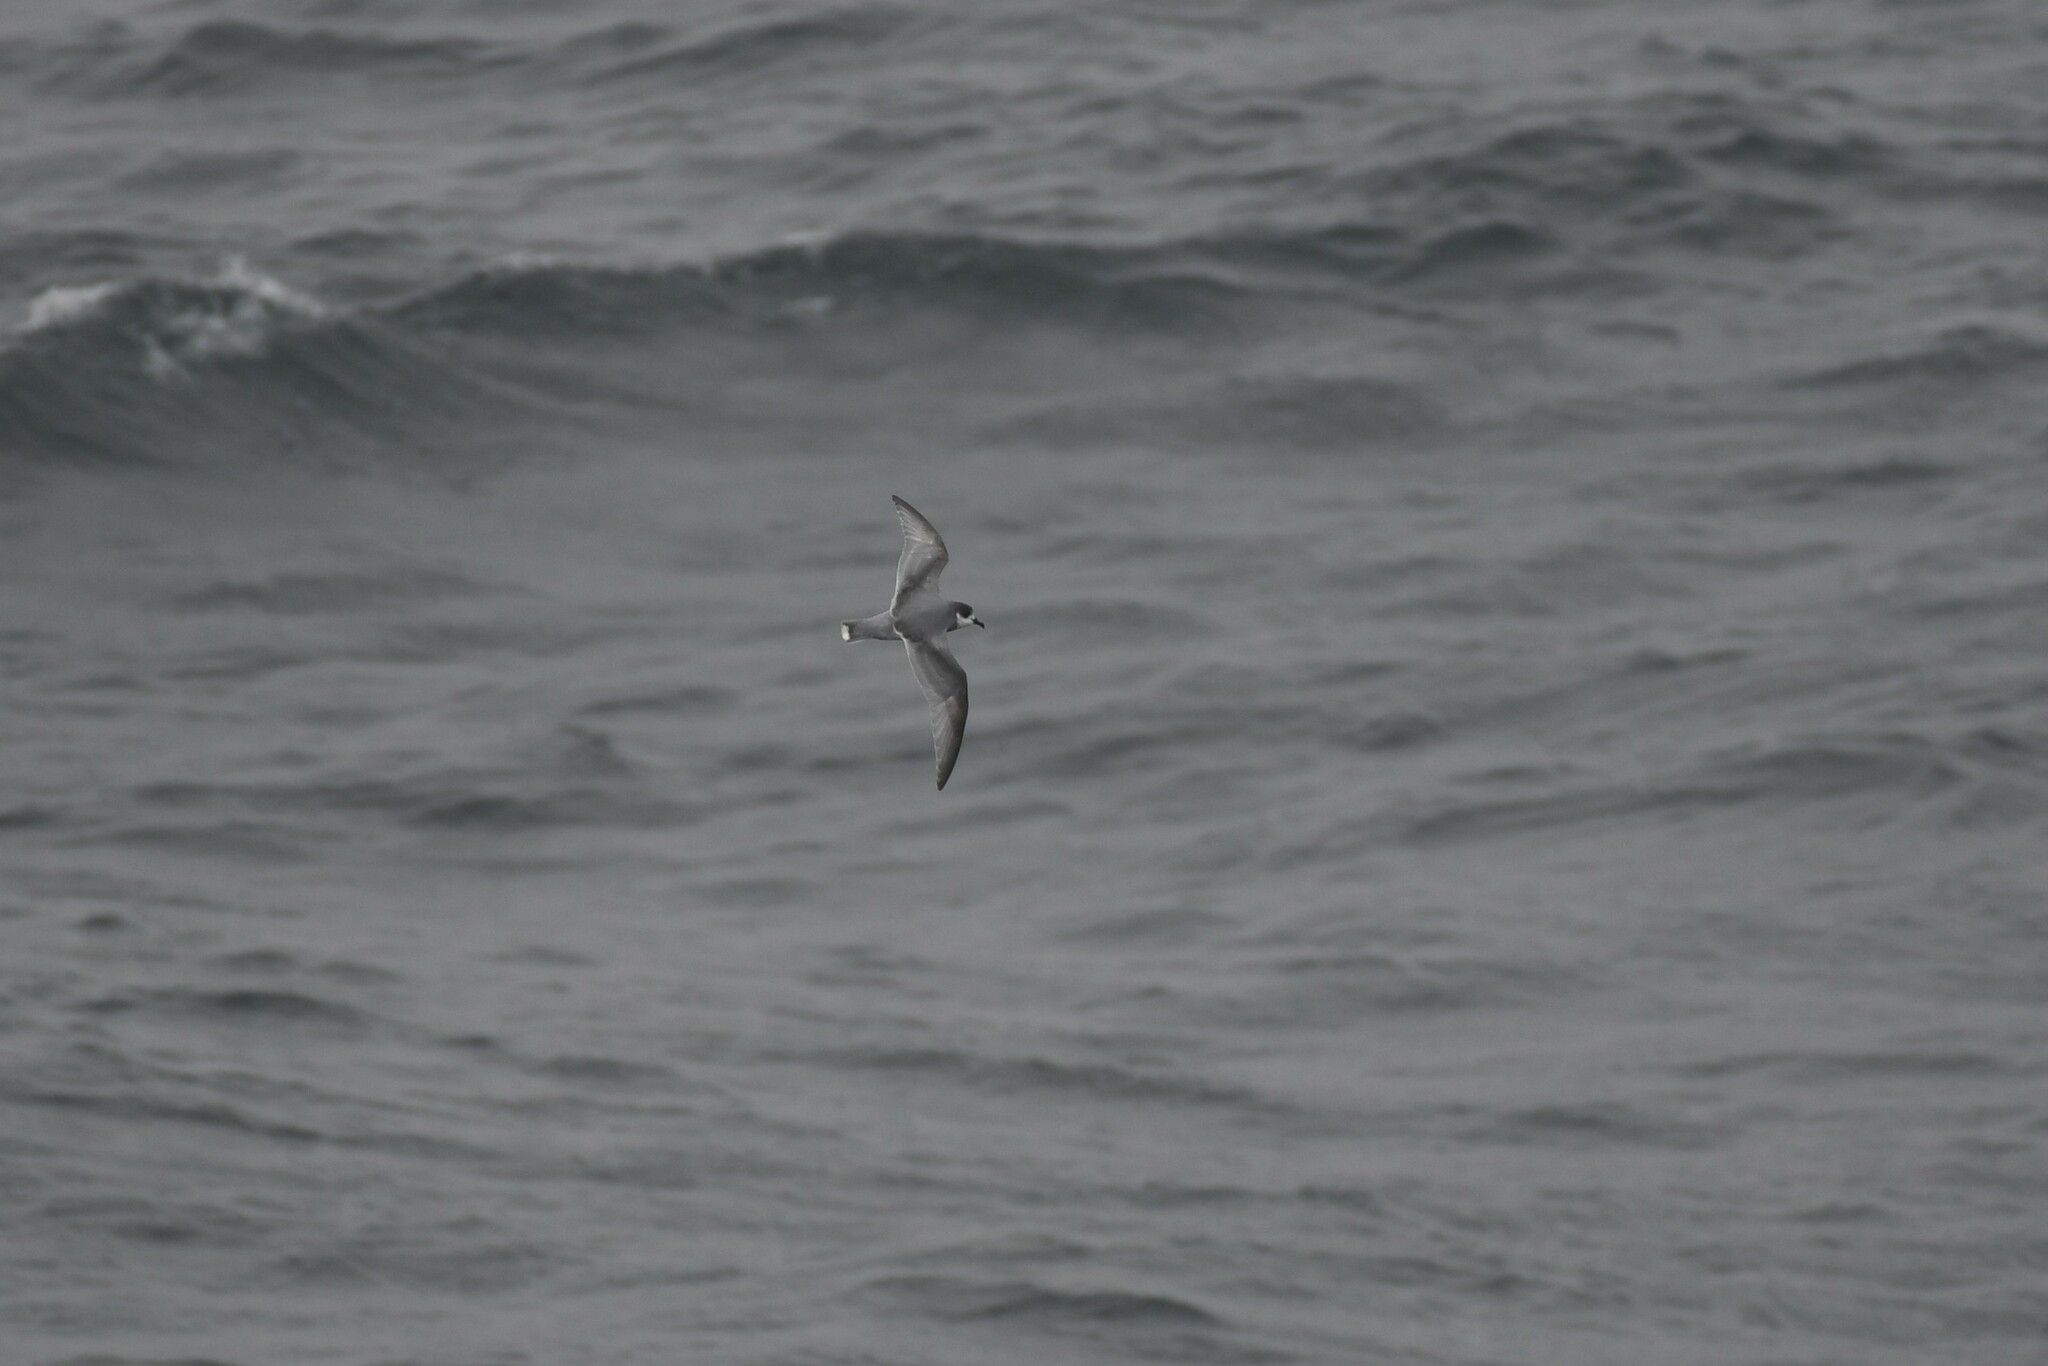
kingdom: Animalia
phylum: Chordata
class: Aves
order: Procellariiformes
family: Procellariidae
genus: Halobaena
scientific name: Halobaena caerulea
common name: Blue petrel
